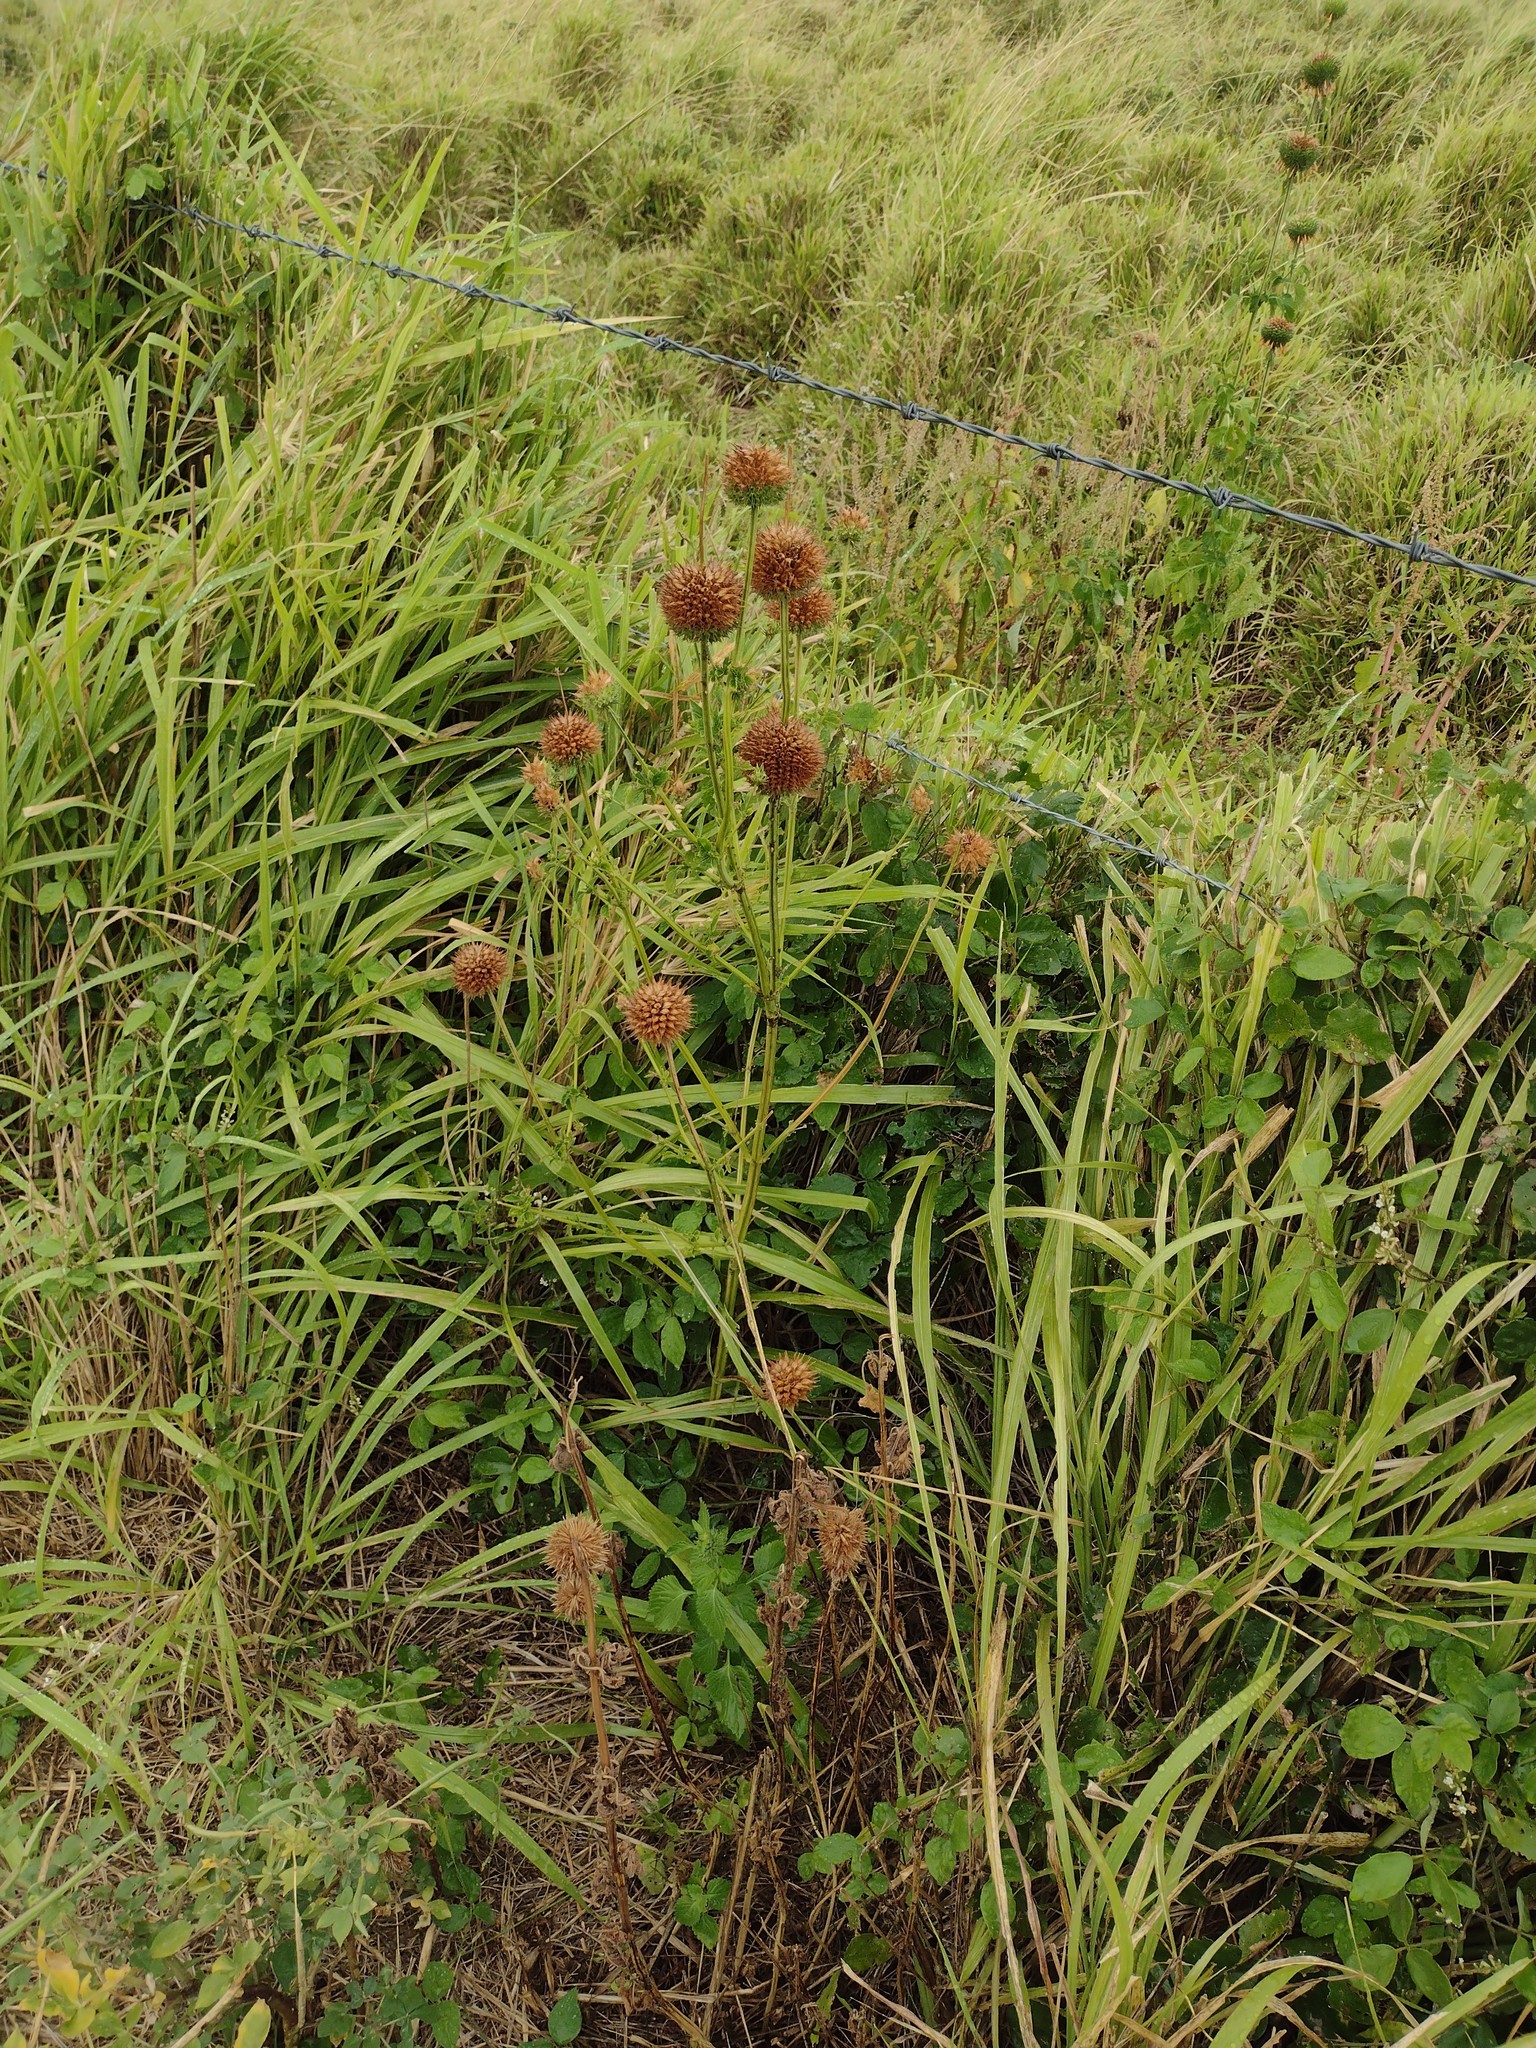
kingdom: Plantae
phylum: Tracheophyta
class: Magnoliopsida
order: Lamiales
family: Lamiaceae
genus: Leonotis
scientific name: Leonotis nepetifolia
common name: Christmas candlestick
